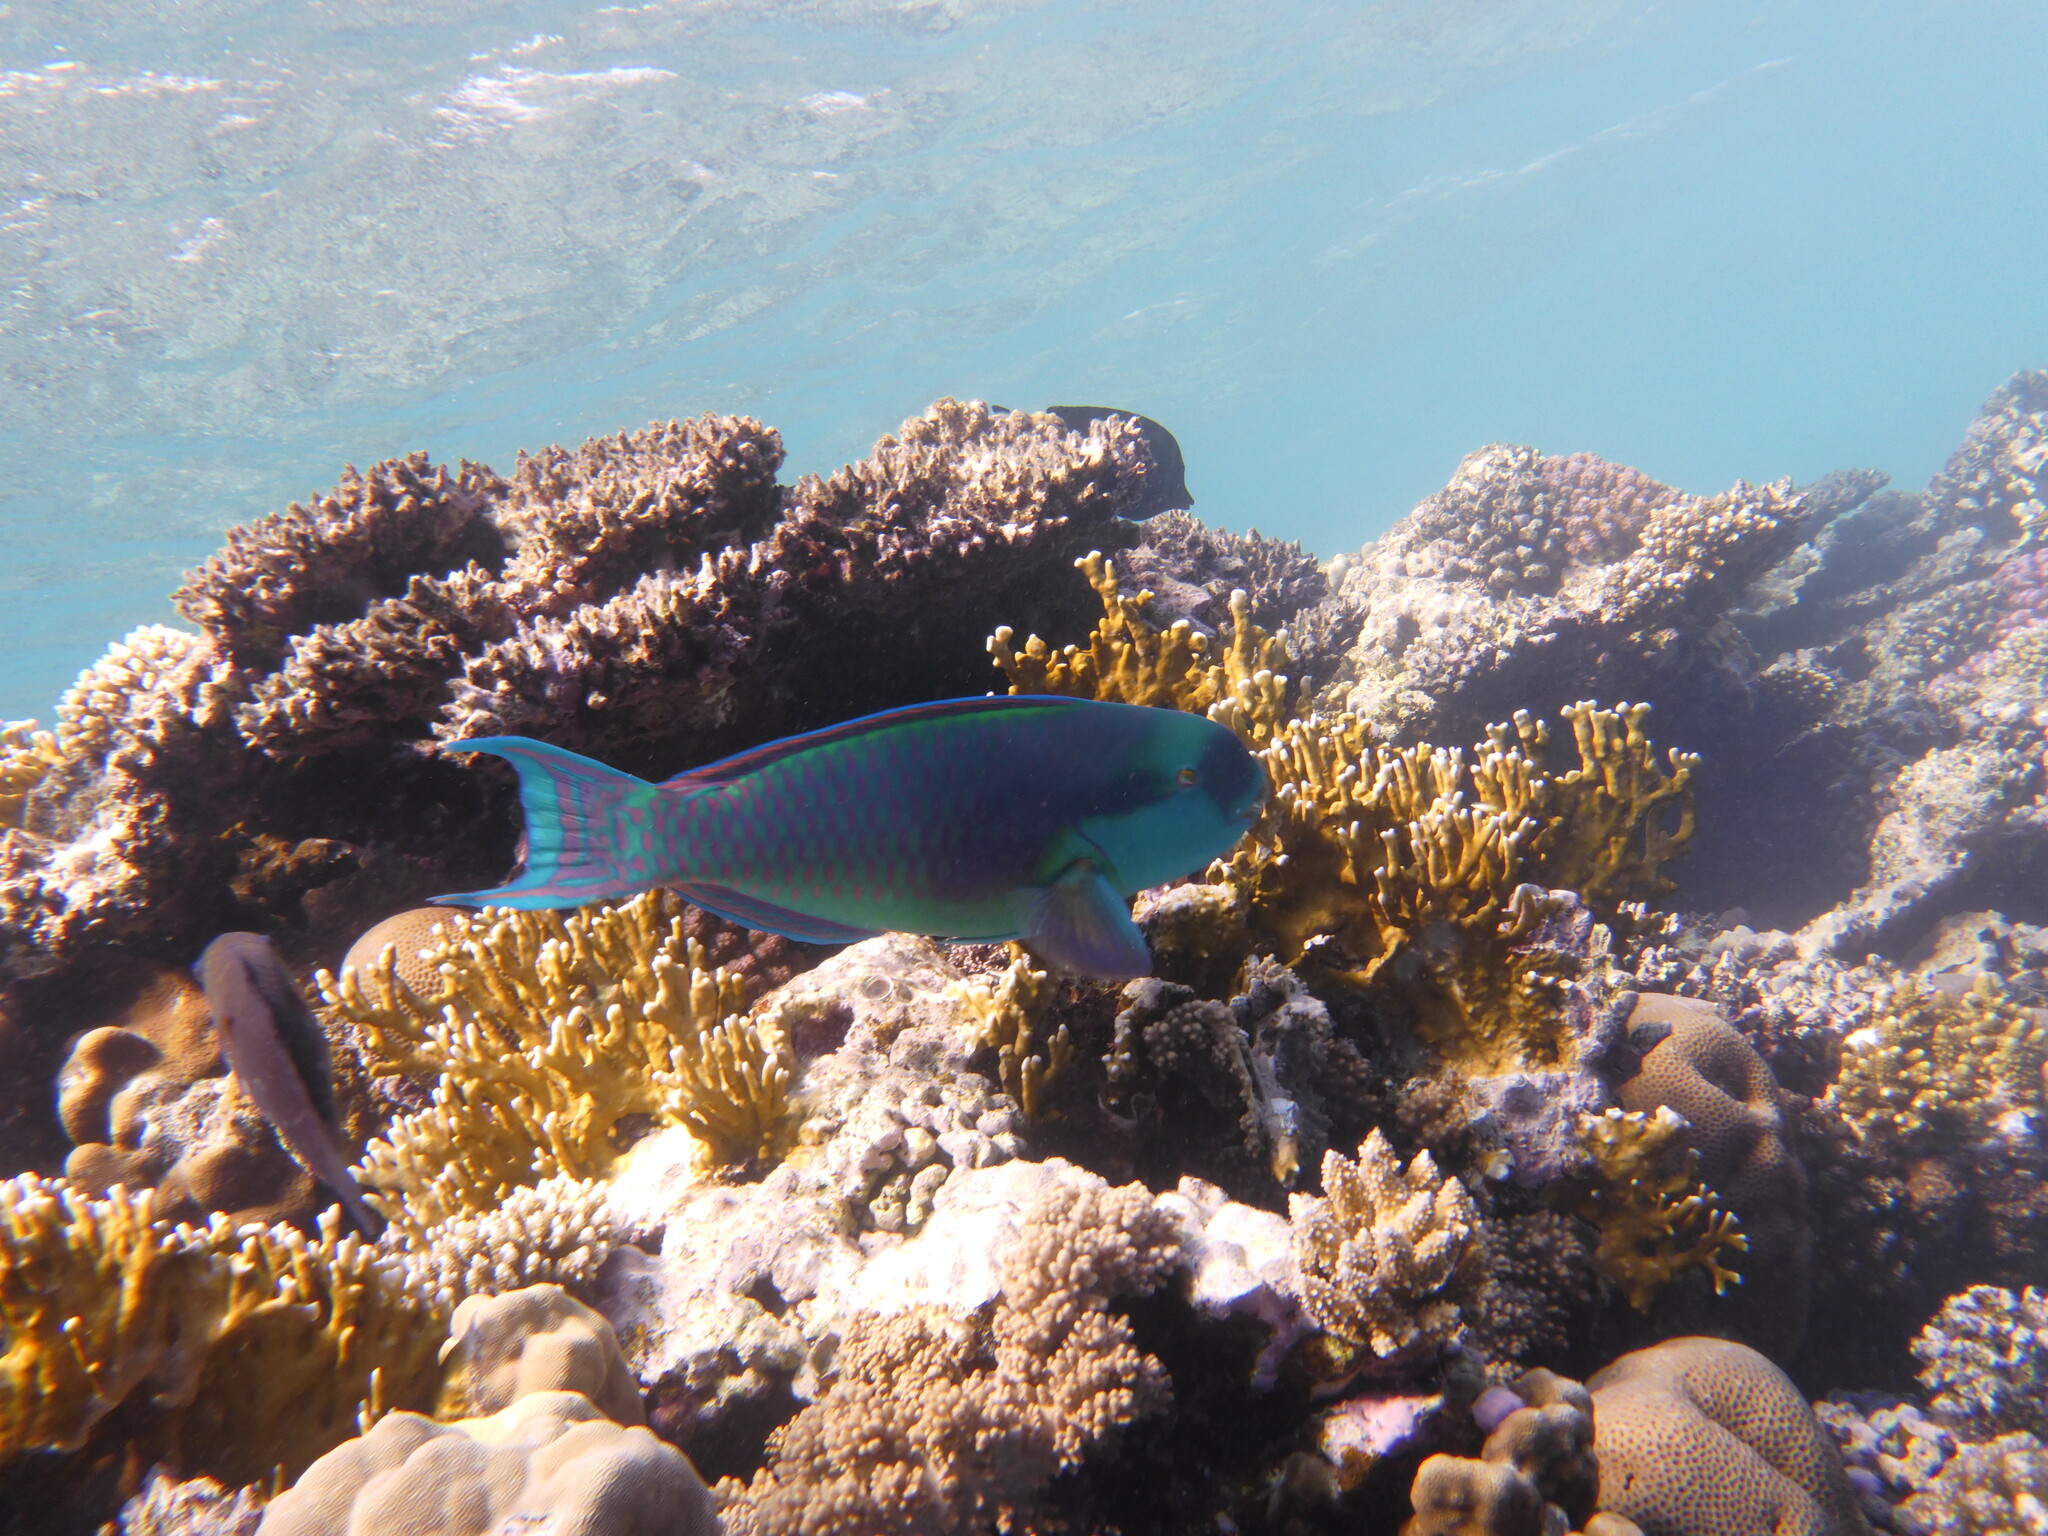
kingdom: Animalia
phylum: Chordata
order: Perciformes
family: Scaridae
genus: Chlorurus
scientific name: Chlorurus gibbus
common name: Heavybeak parrotfish
